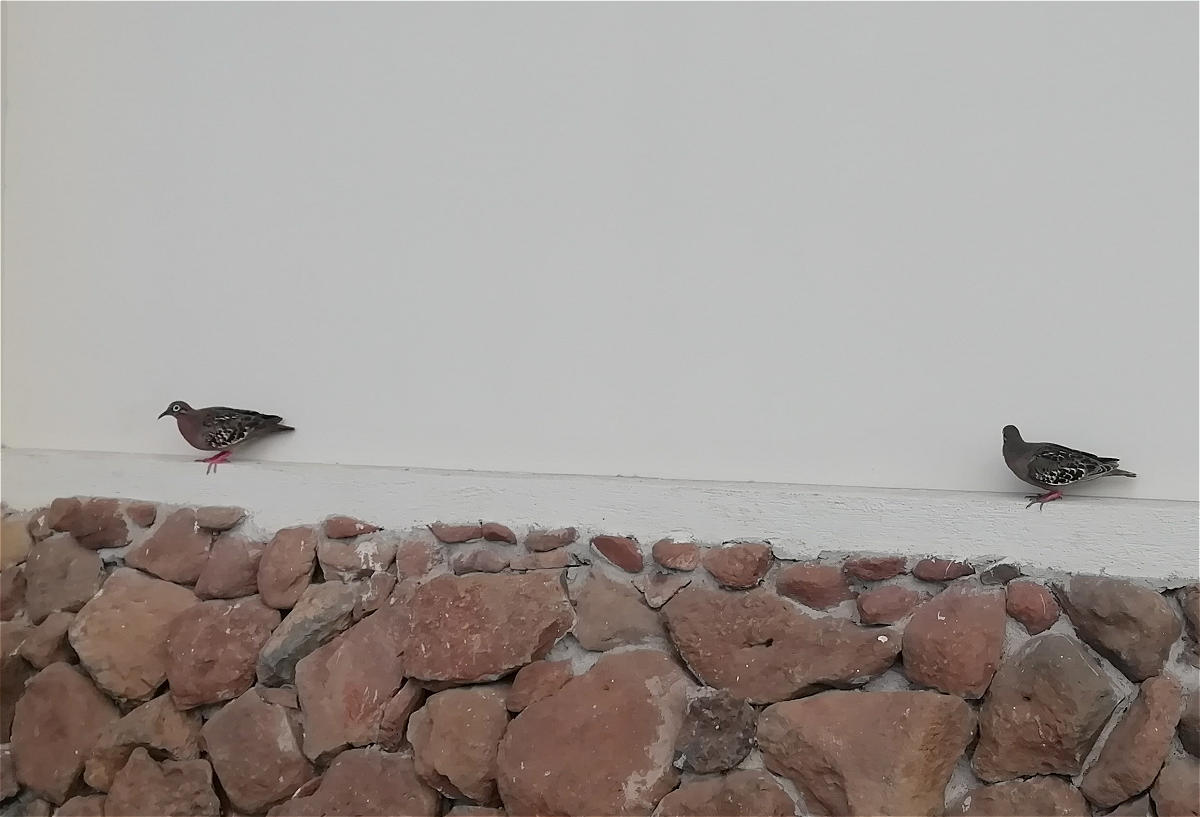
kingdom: Animalia
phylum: Chordata
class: Aves
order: Columbiformes
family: Columbidae
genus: Zenaida
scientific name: Zenaida galapagoensis
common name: Galapagos dove
